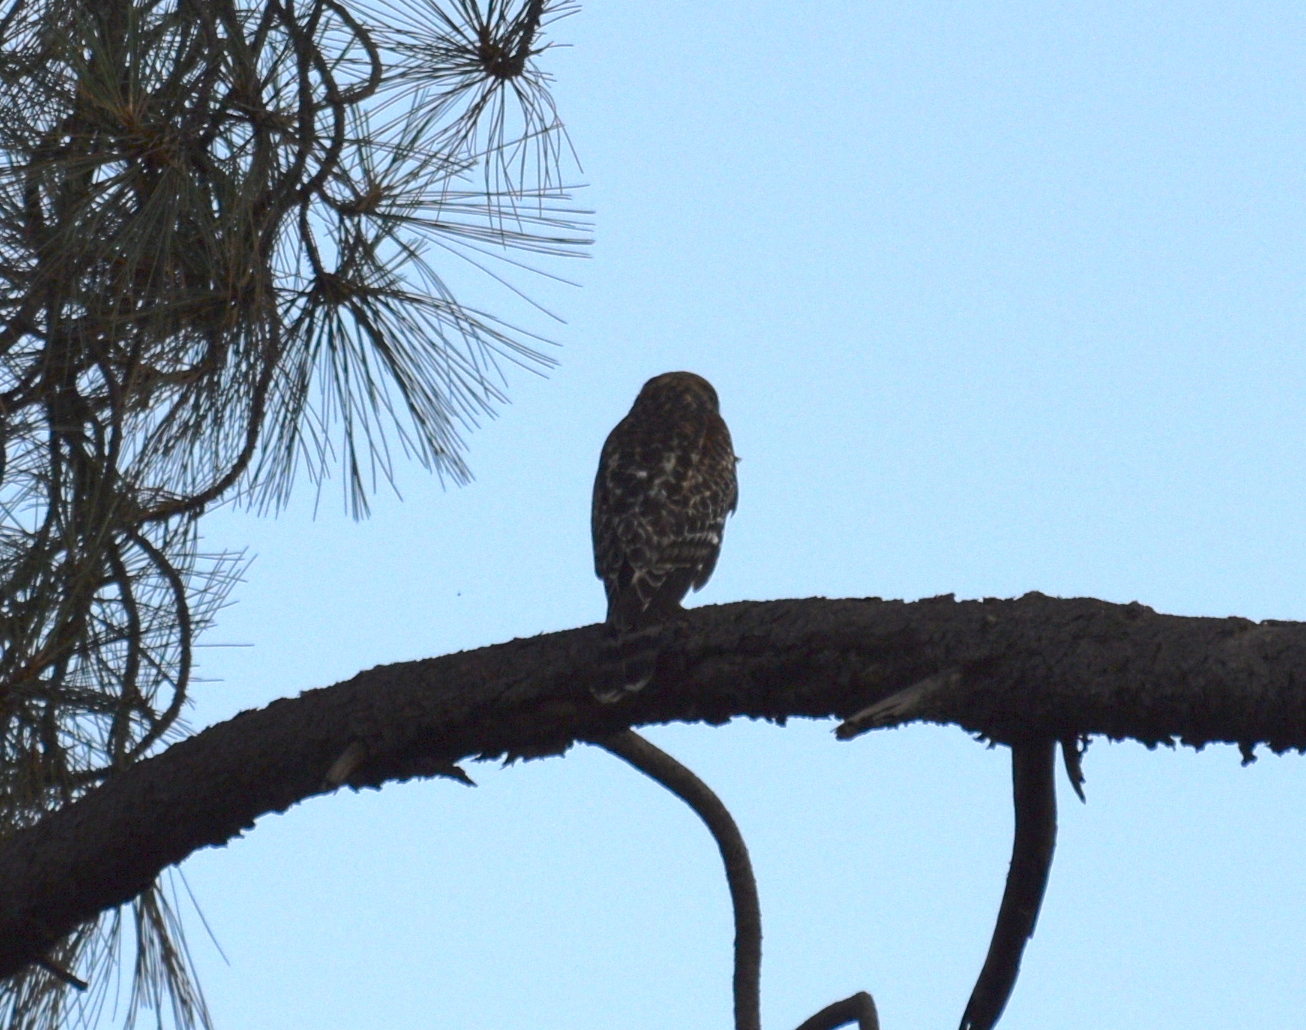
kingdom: Animalia
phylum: Chordata
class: Aves
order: Accipitriformes
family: Accipitridae
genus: Buteo
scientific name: Buteo lineatus
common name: Red-shouldered hawk
